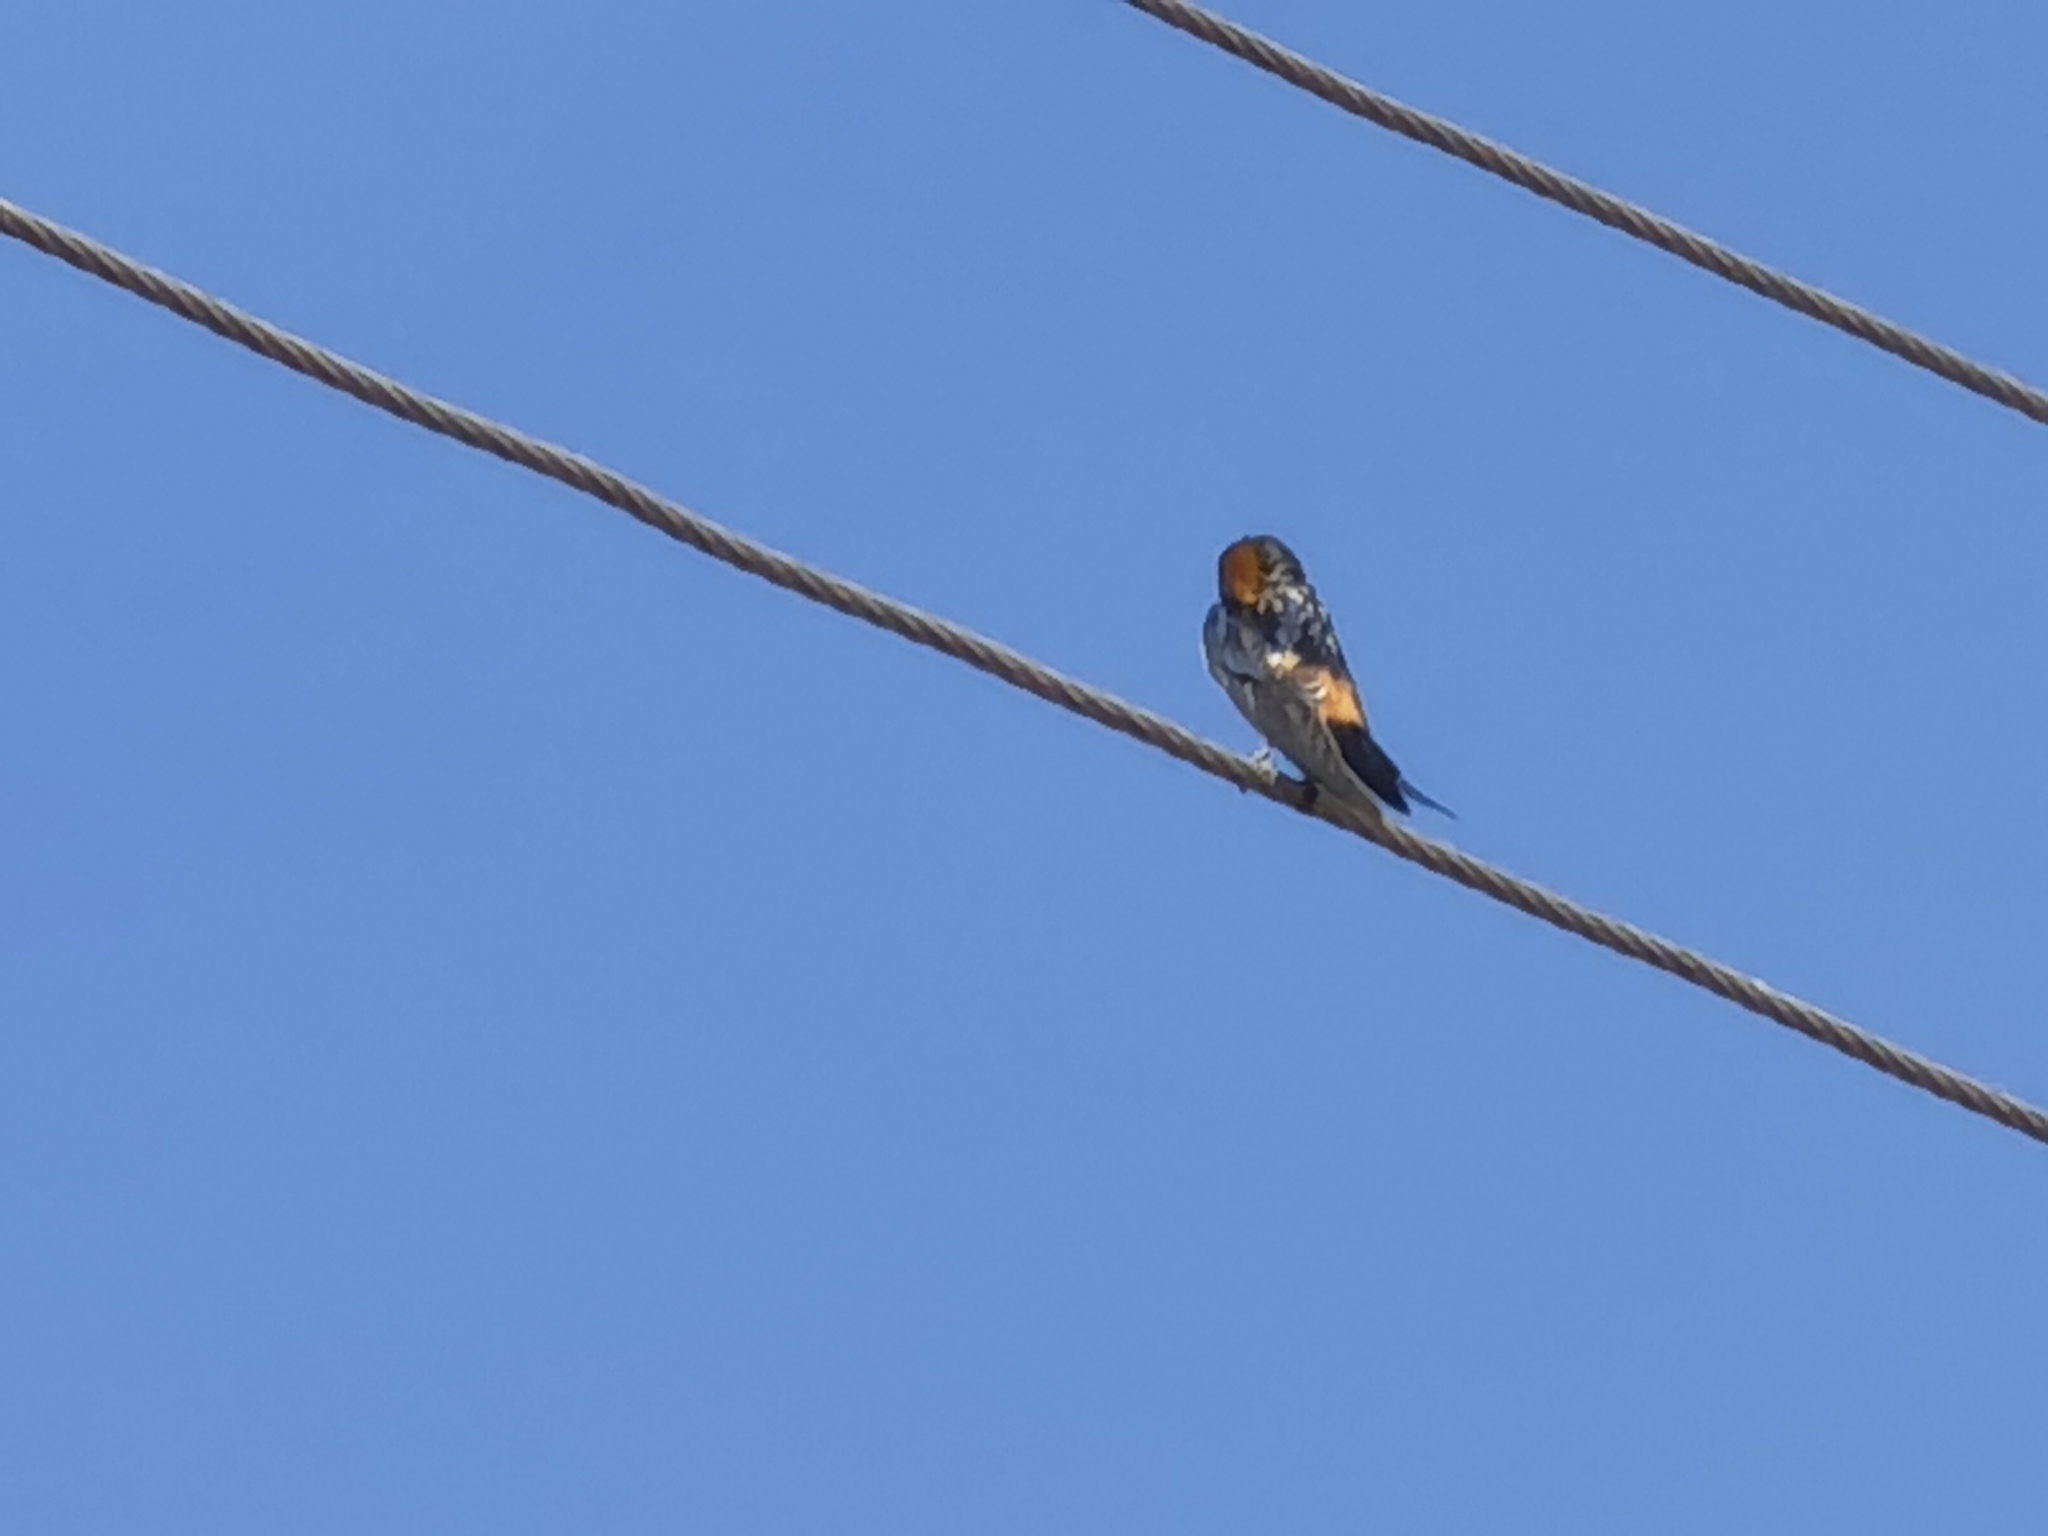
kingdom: Animalia
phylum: Chordata
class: Aves
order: Passeriformes
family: Hirundinidae
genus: Cecropis
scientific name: Cecropis daurica
